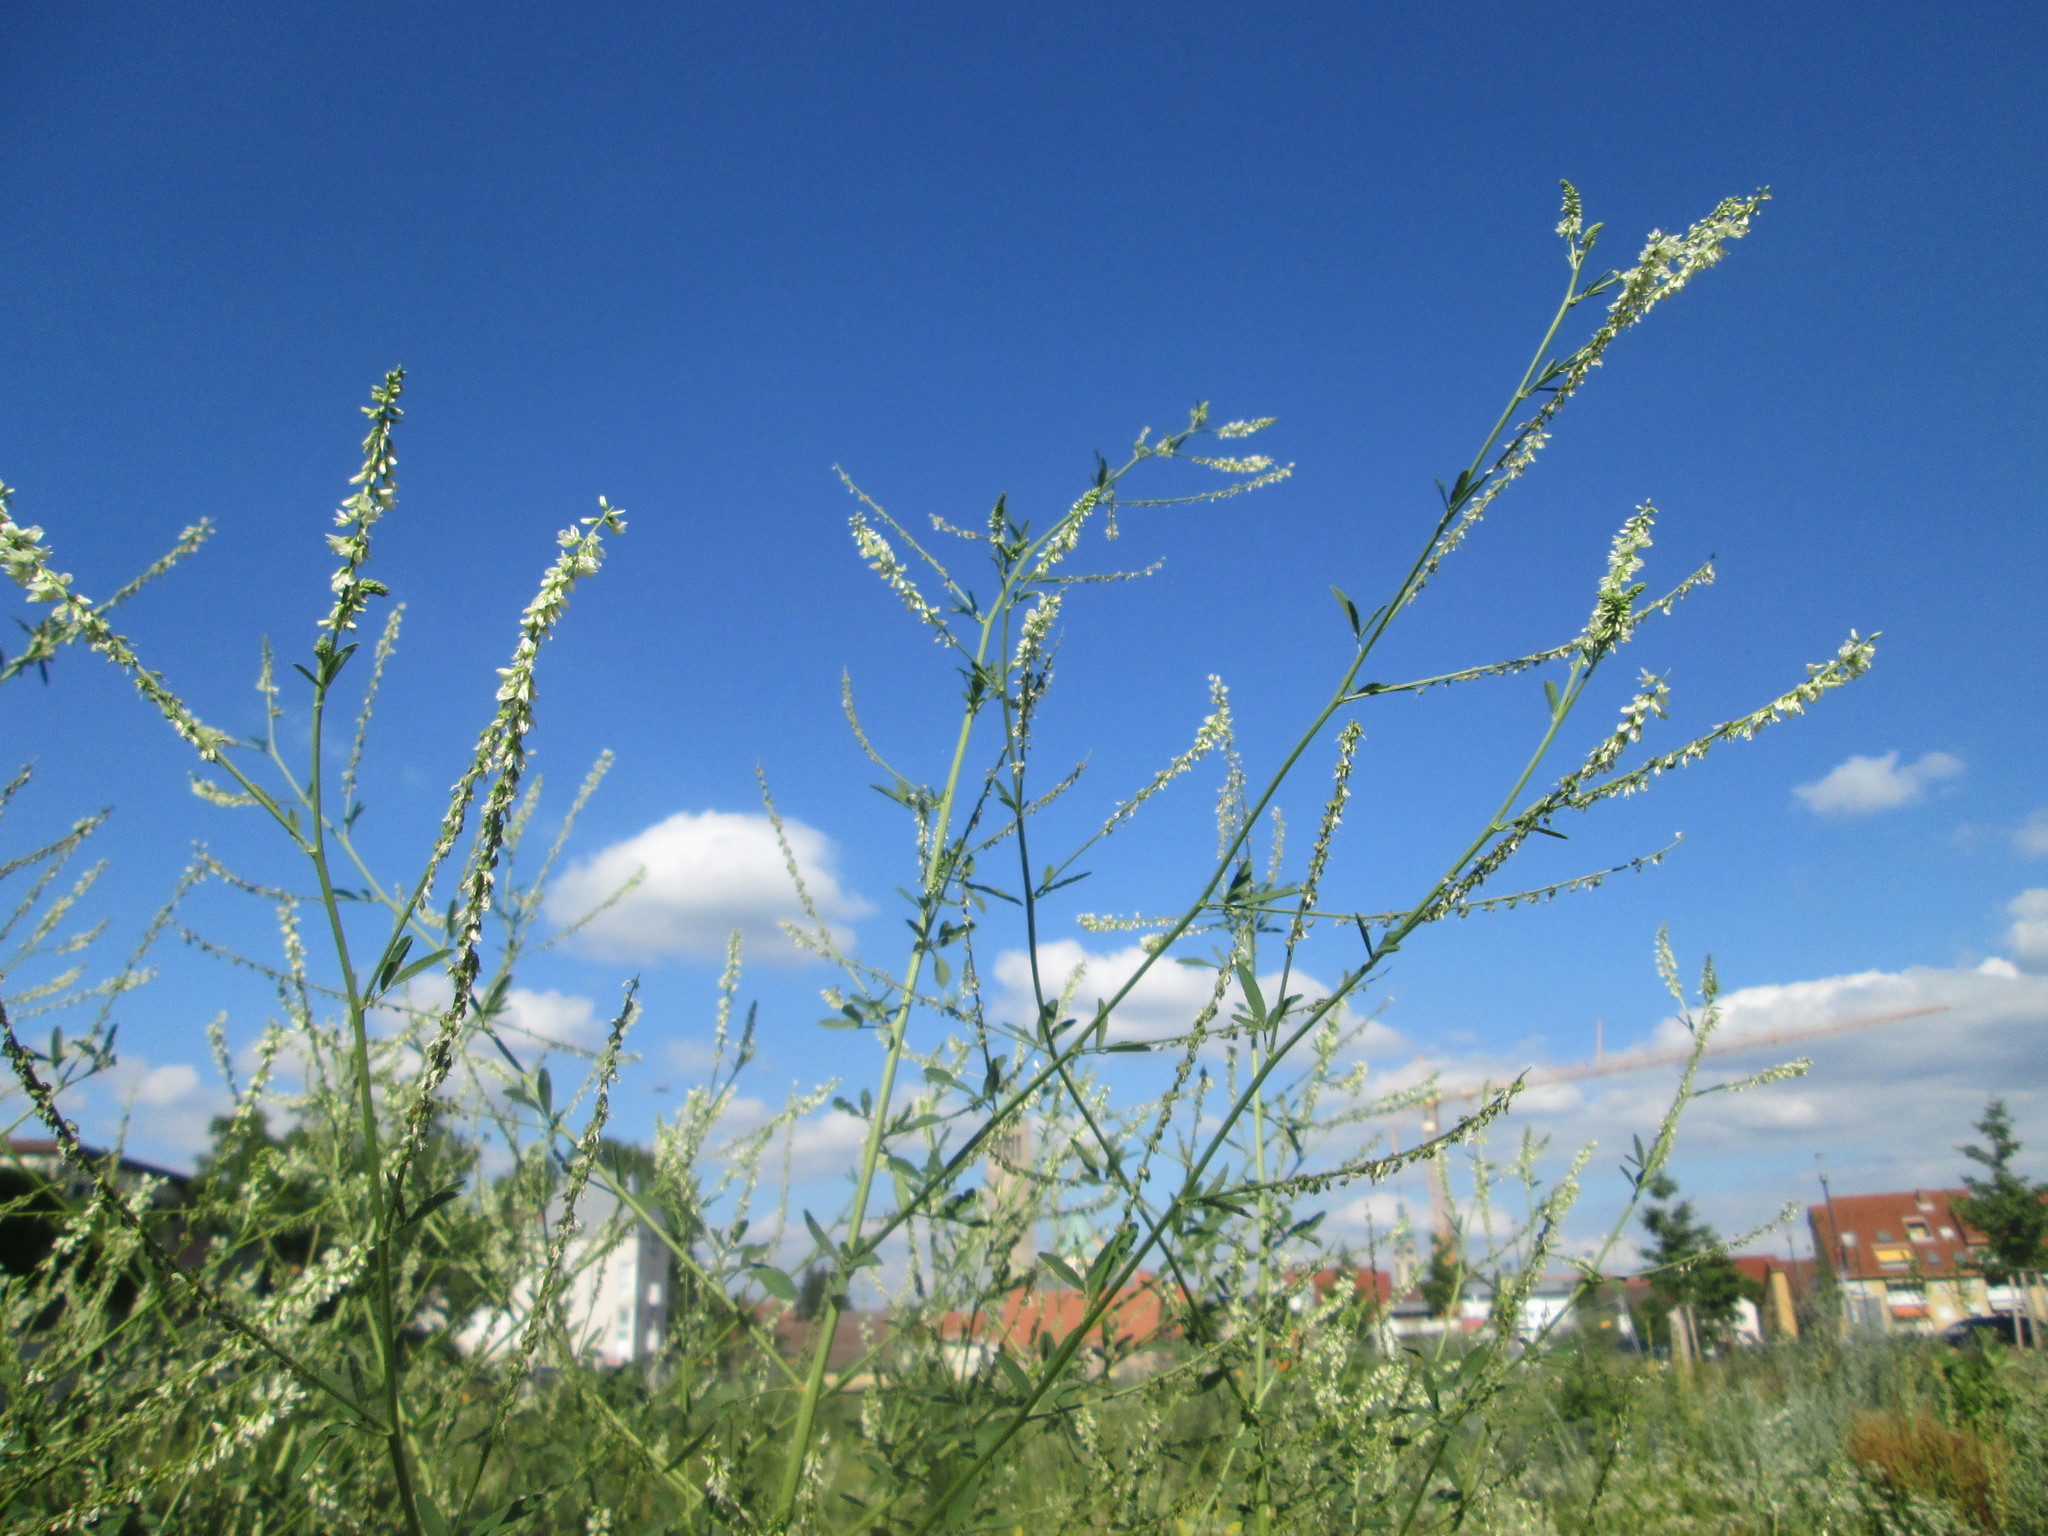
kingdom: Plantae
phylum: Tracheophyta
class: Magnoliopsida
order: Fabales
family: Fabaceae
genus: Melilotus
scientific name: Melilotus albus
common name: White melilot
